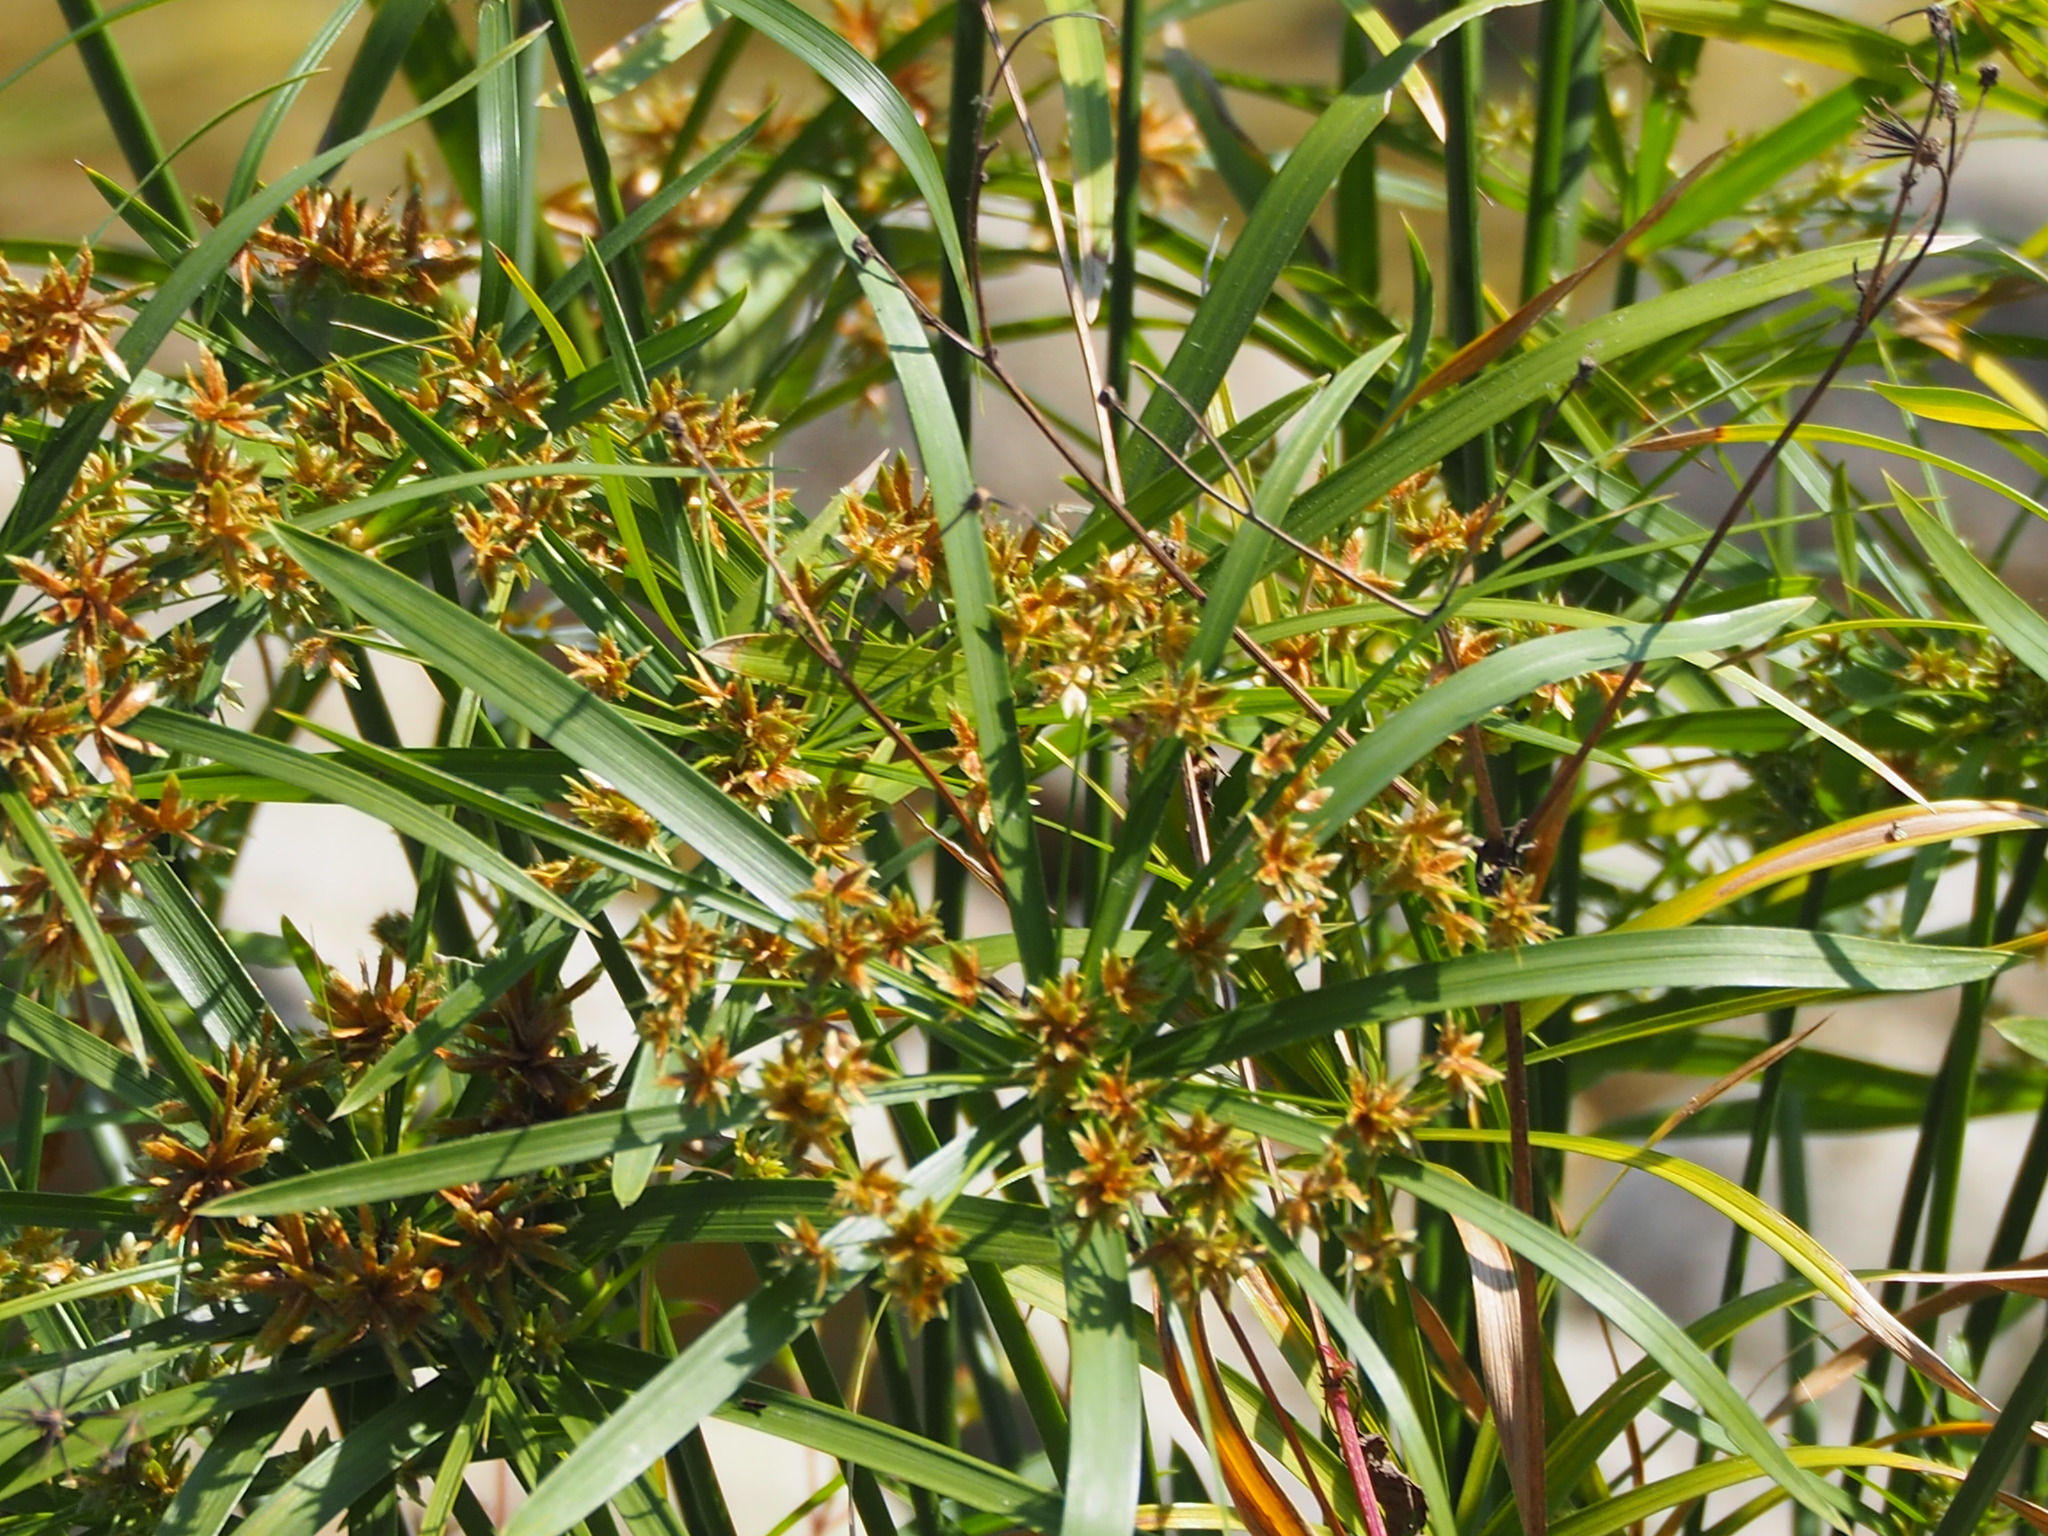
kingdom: Plantae
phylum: Tracheophyta
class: Liliopsida
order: Poales
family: Cyperaceae
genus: Cyperus
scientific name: Cyperus alternifolius
